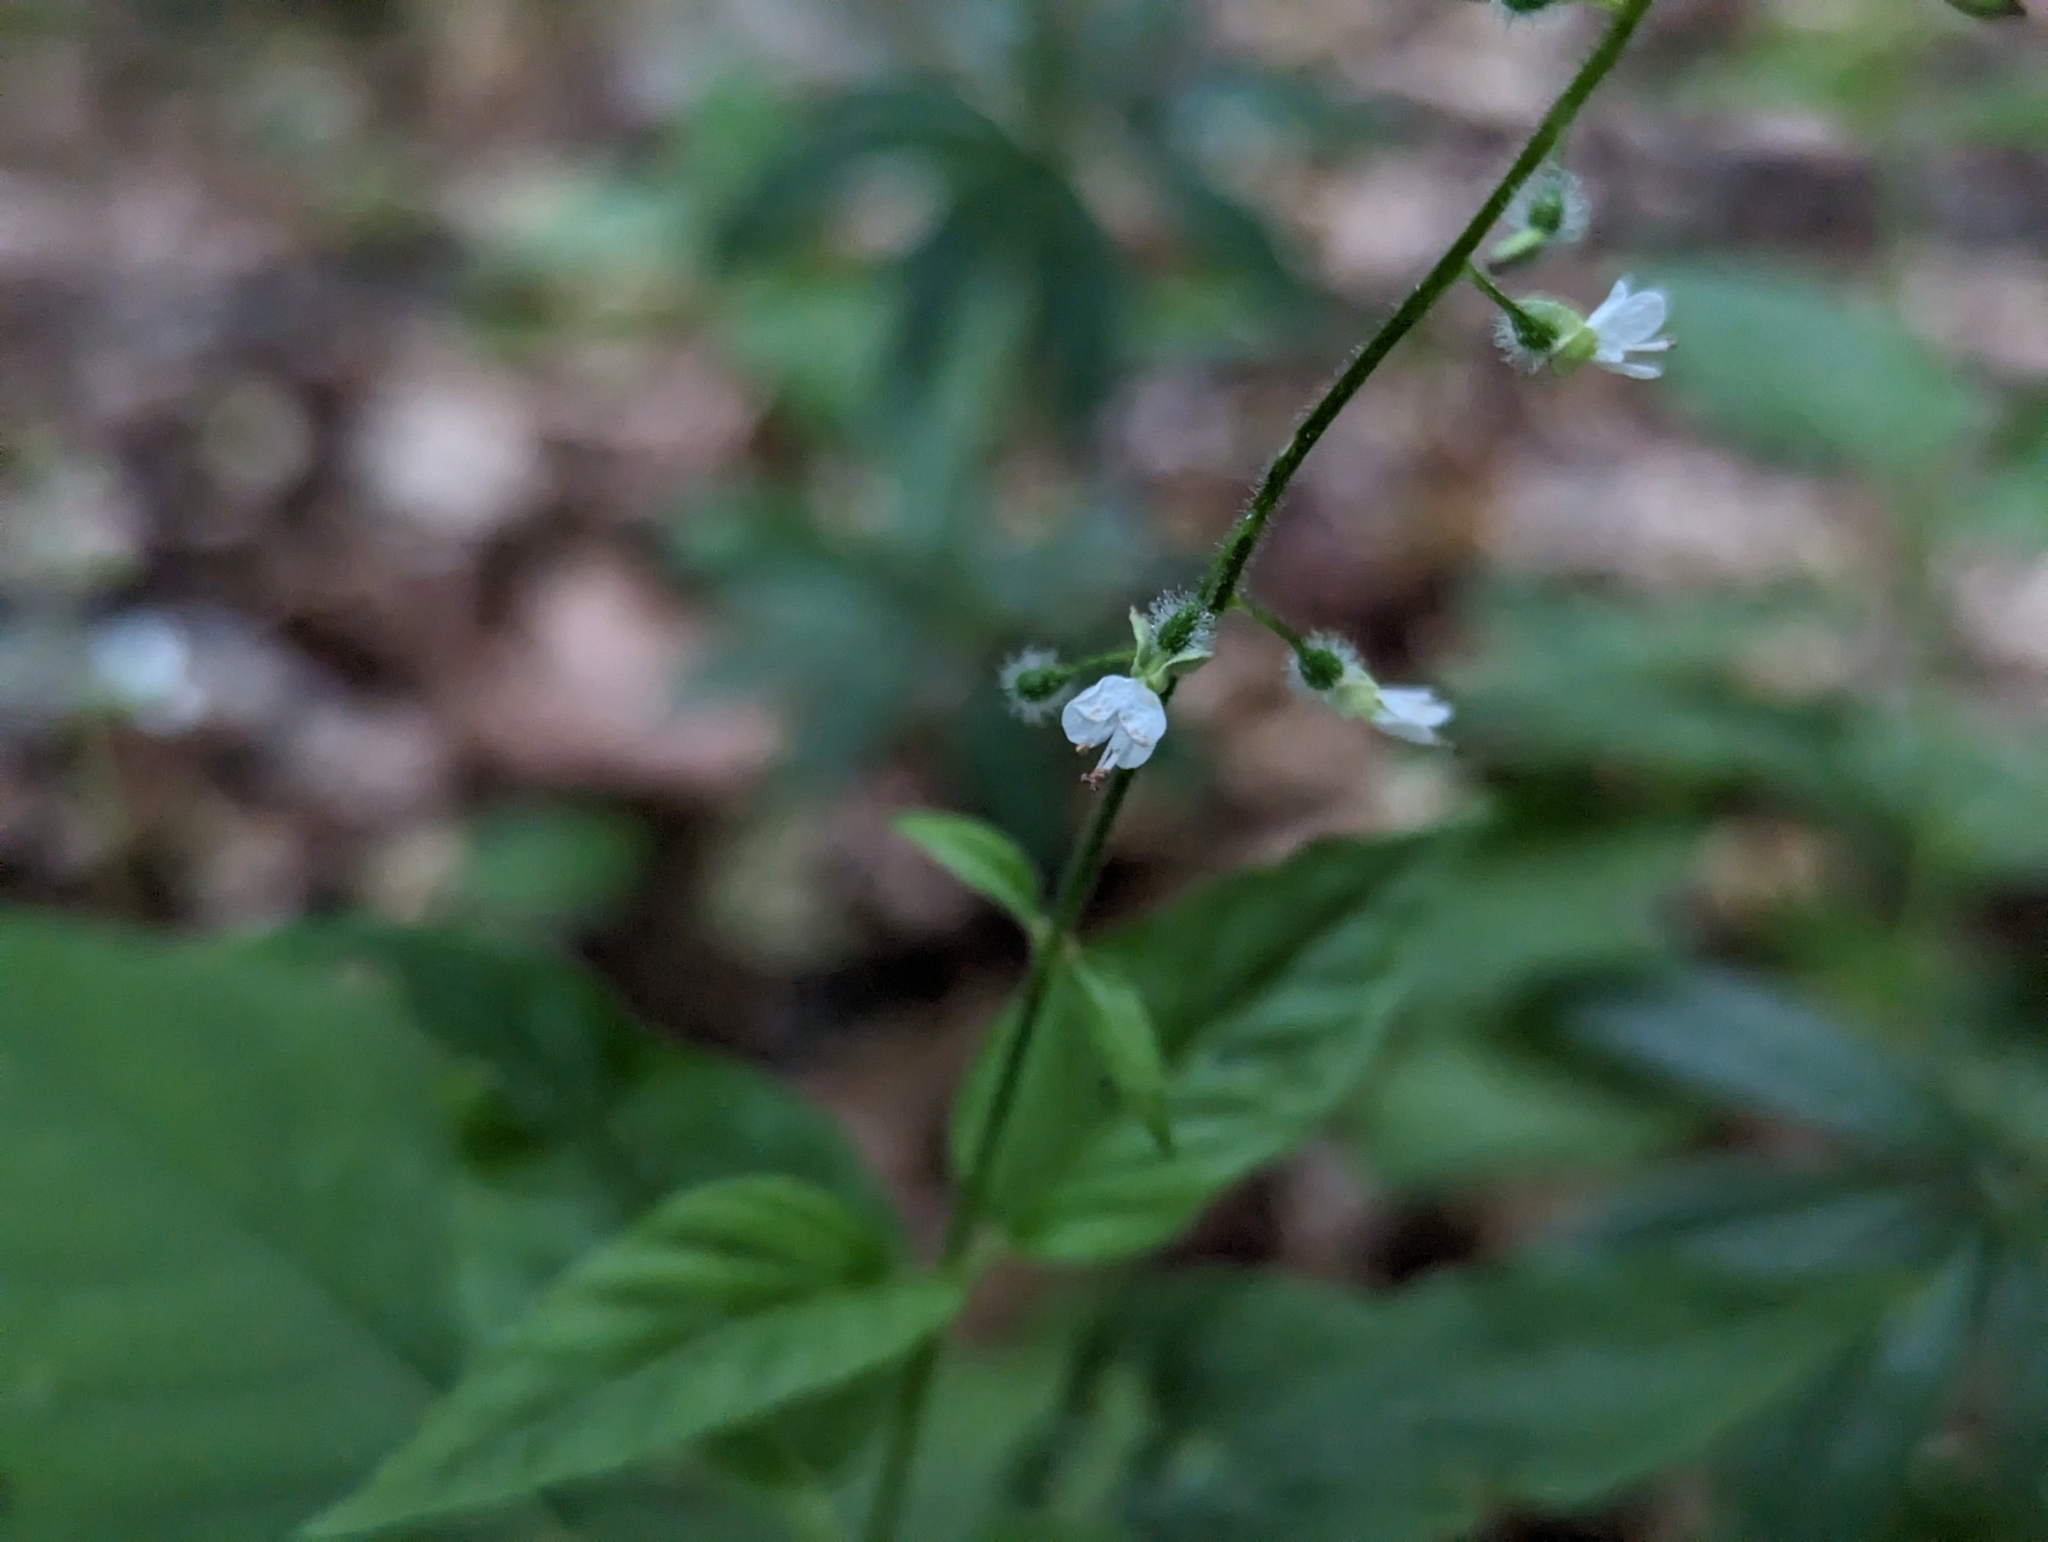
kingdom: Plantae
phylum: Tracheophyta
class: Magnoliopsida
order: Myrtales
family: Onagraceae
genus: Circaea
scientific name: Circaea lutetiana
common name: Enchanter's-nightshade
